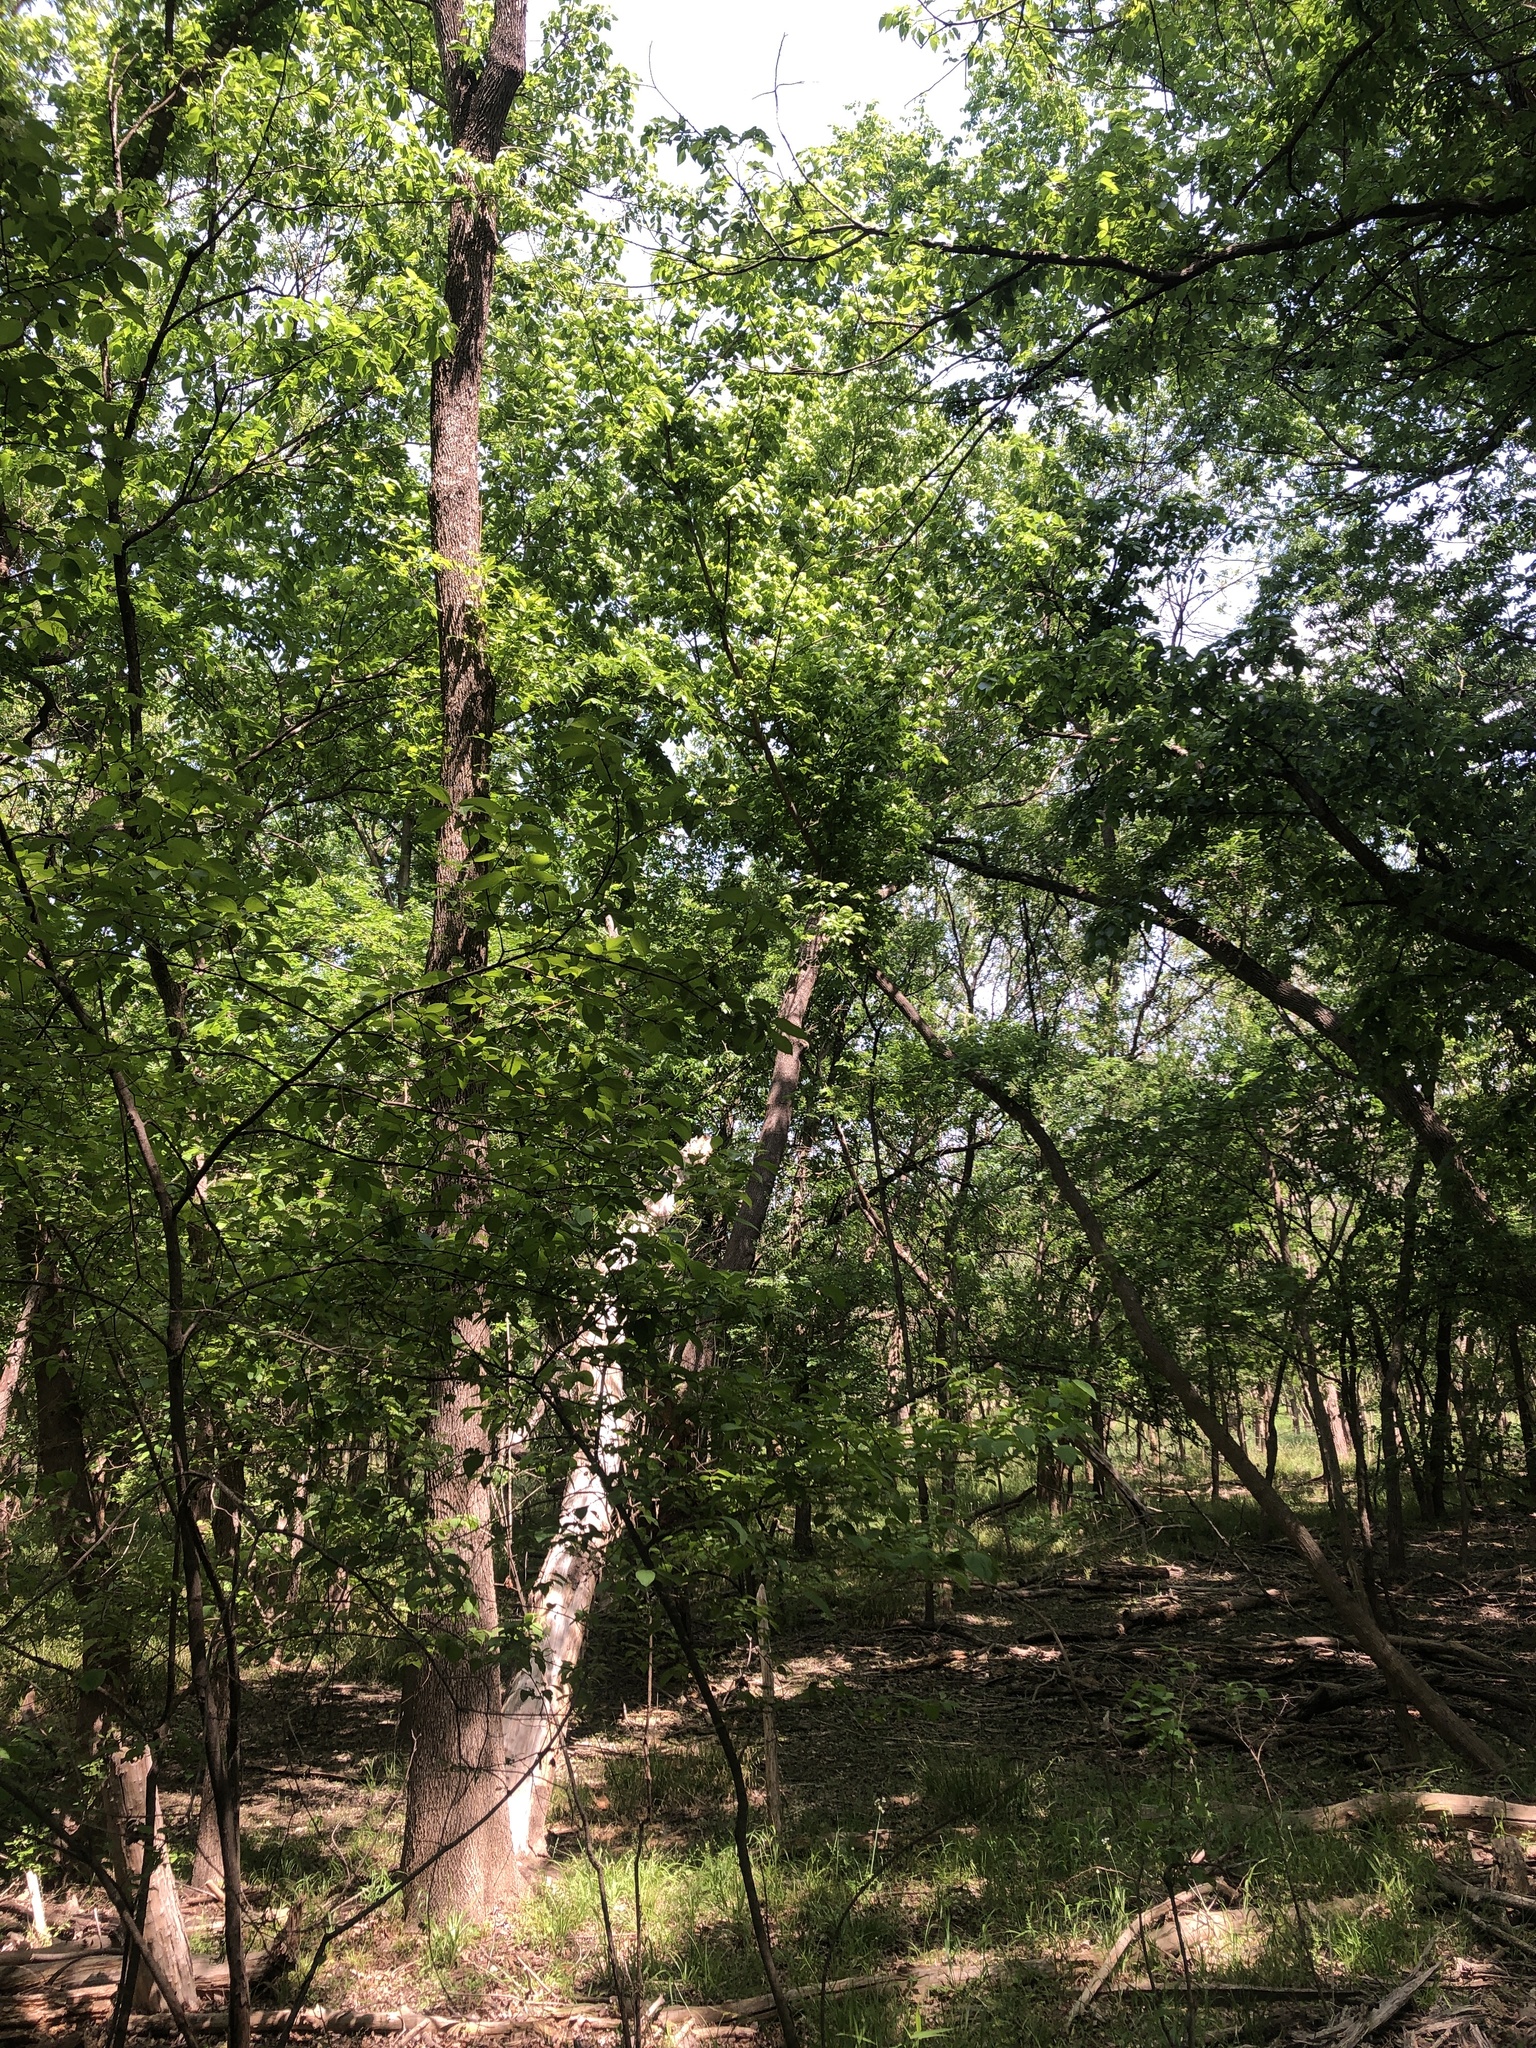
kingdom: Animalia
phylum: Chordata
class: Aves
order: Passeriformes
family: Paridae
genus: Poecile
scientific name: Poecile carolinensis
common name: Carolina chickadee
